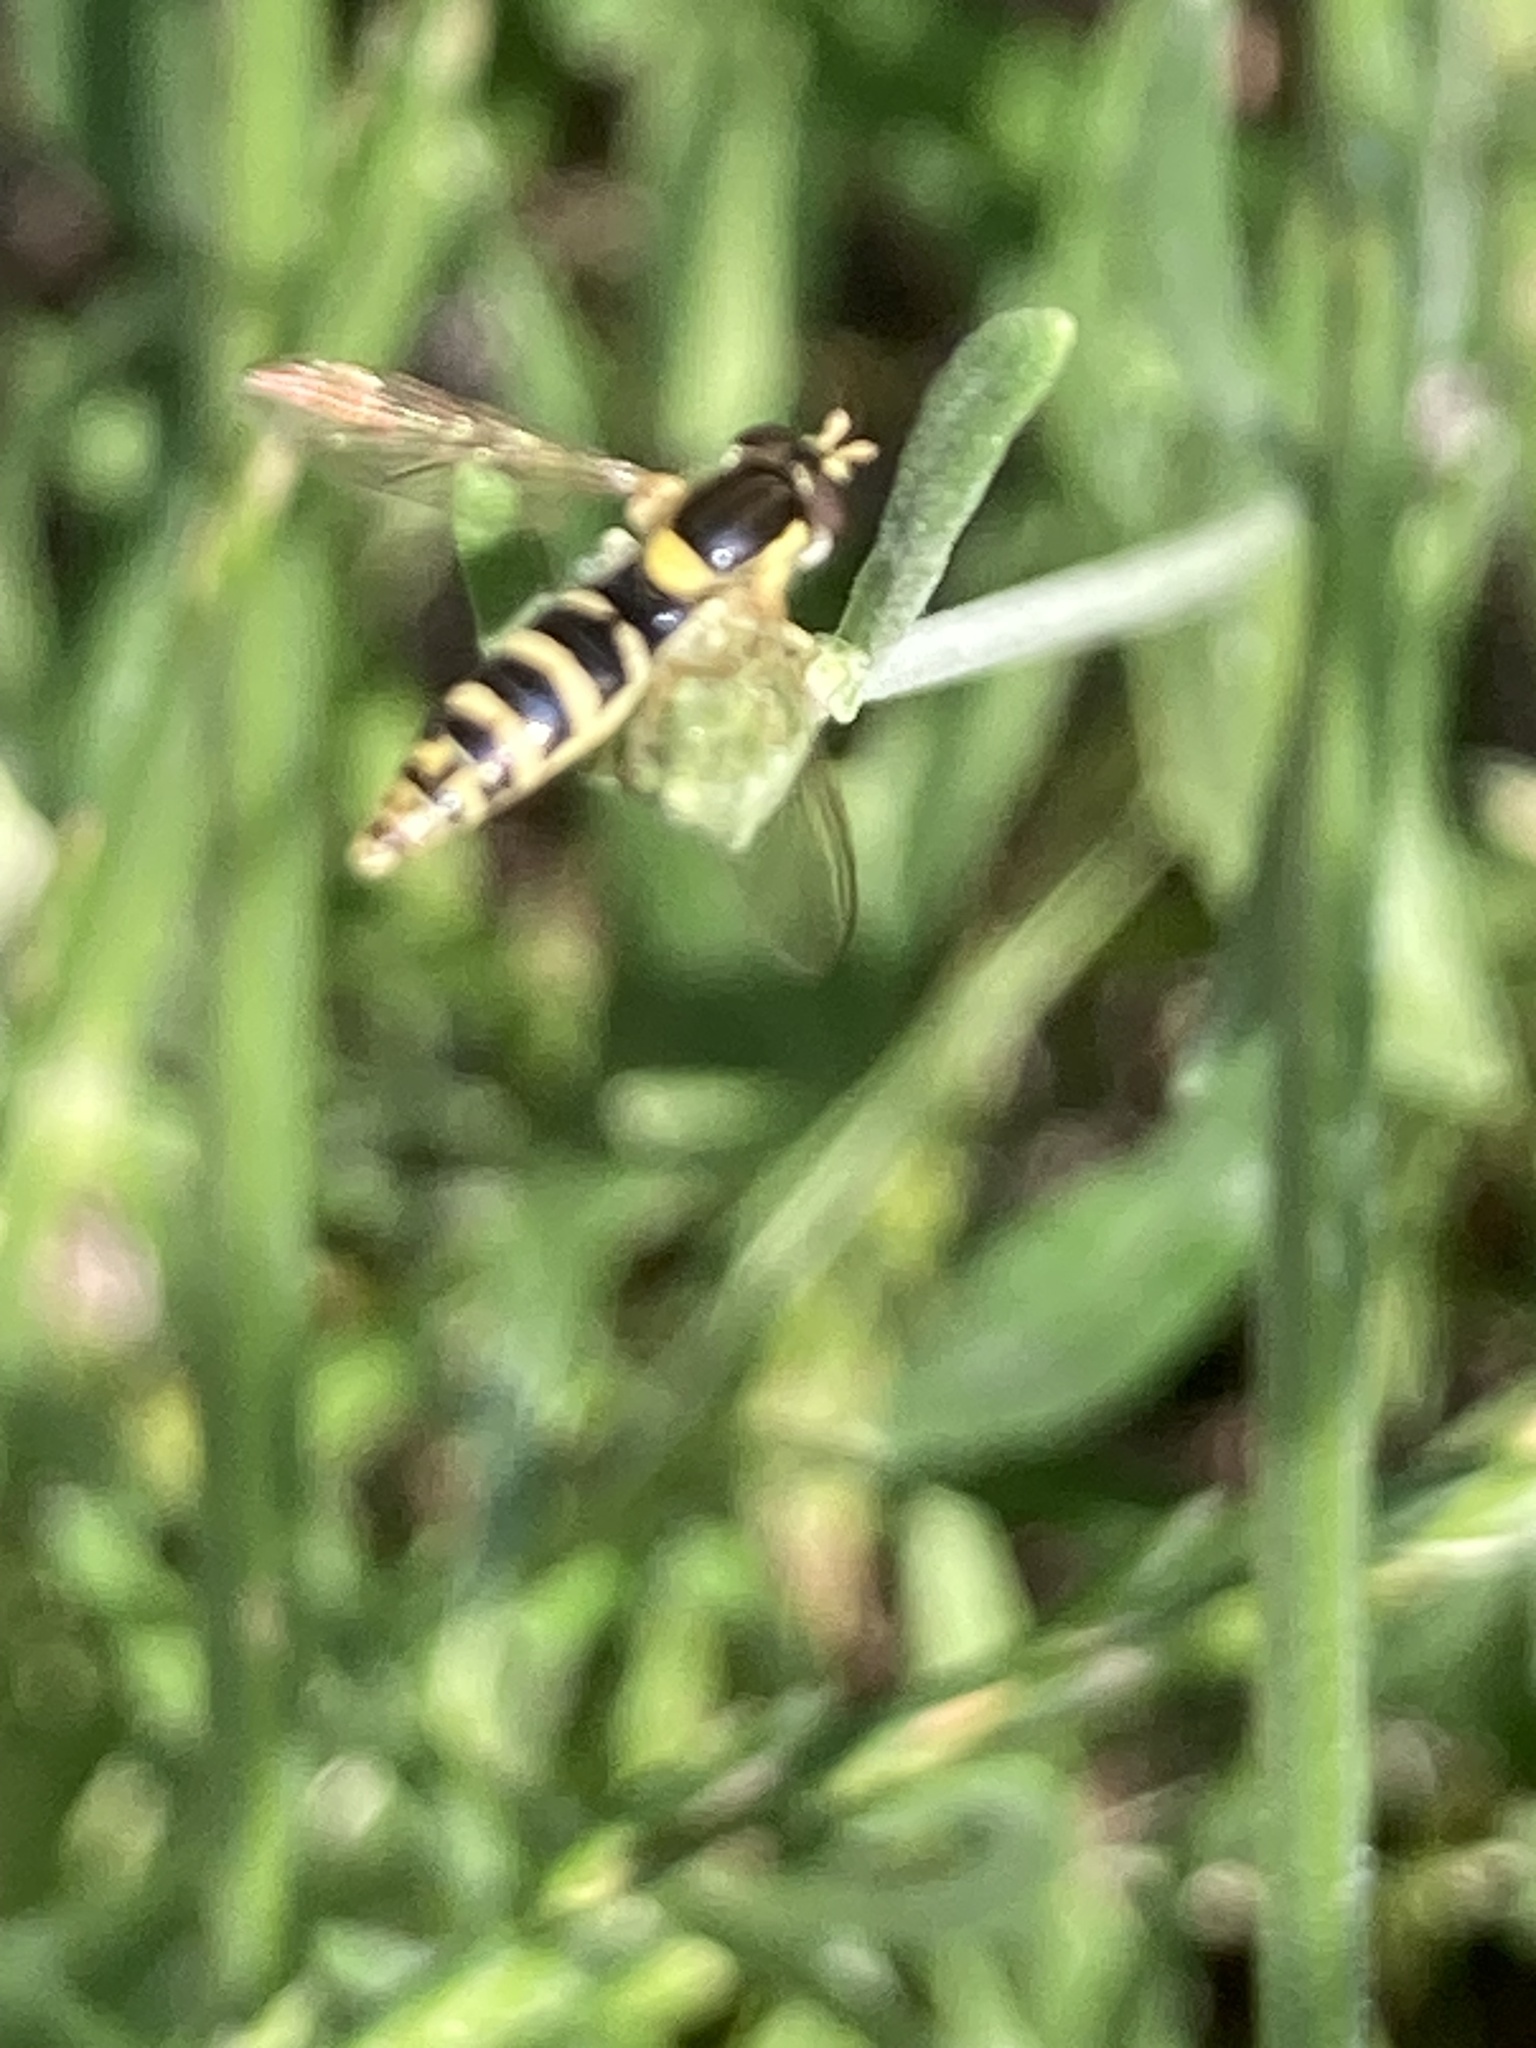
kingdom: Animalia
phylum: Arthropoda
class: Insecta
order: Diptera
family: Syrphidae
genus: Sphaerophoria
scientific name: Sphaerophoria
